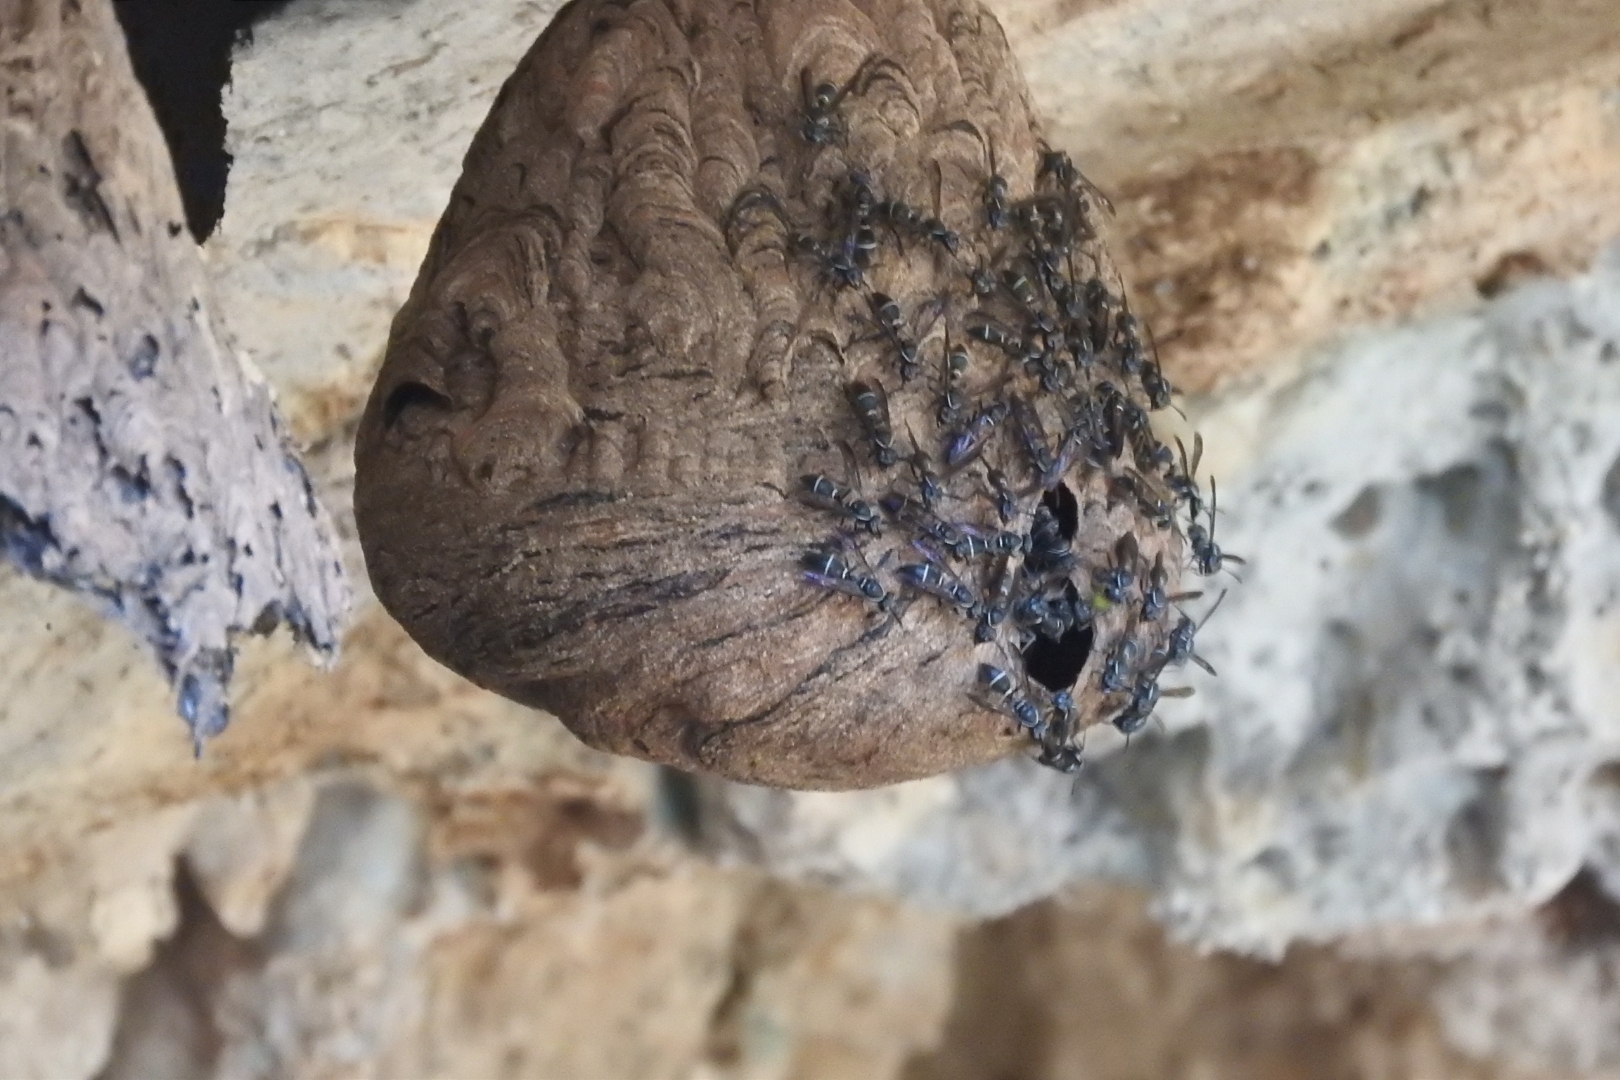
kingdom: Animalia
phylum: Arthropoda
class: Insecta
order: Hymenoptera
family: Eumenidae
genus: Polybia
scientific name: Polybia plebeja
